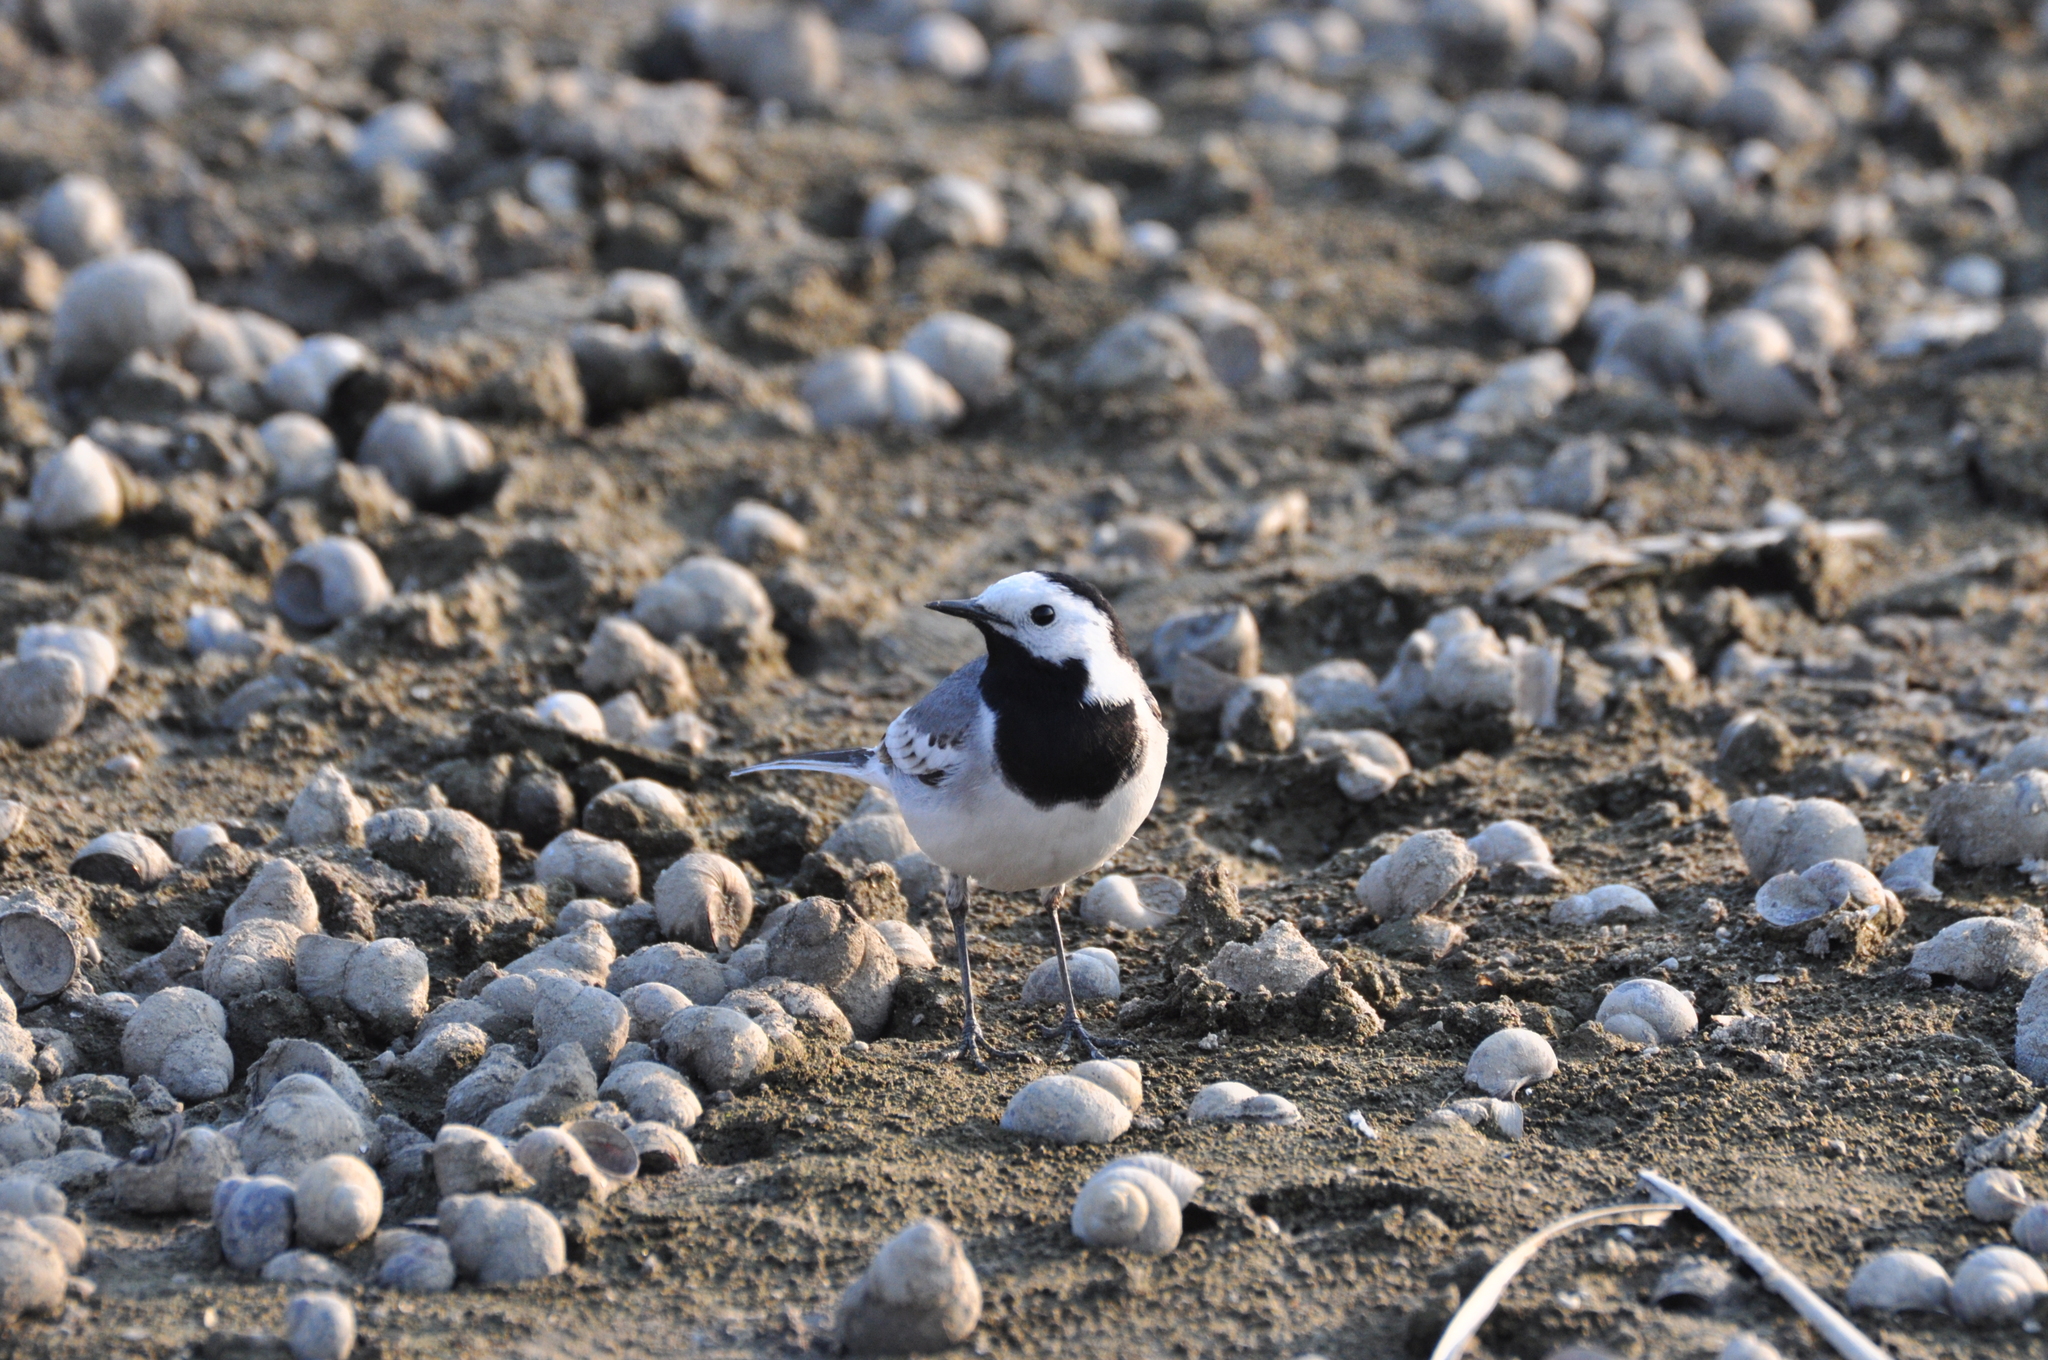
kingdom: Animalia
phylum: Chordata
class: Aves
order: Passeriformes
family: Motacillidae
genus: Motacilla
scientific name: Motacilla alba
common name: White wagtail
